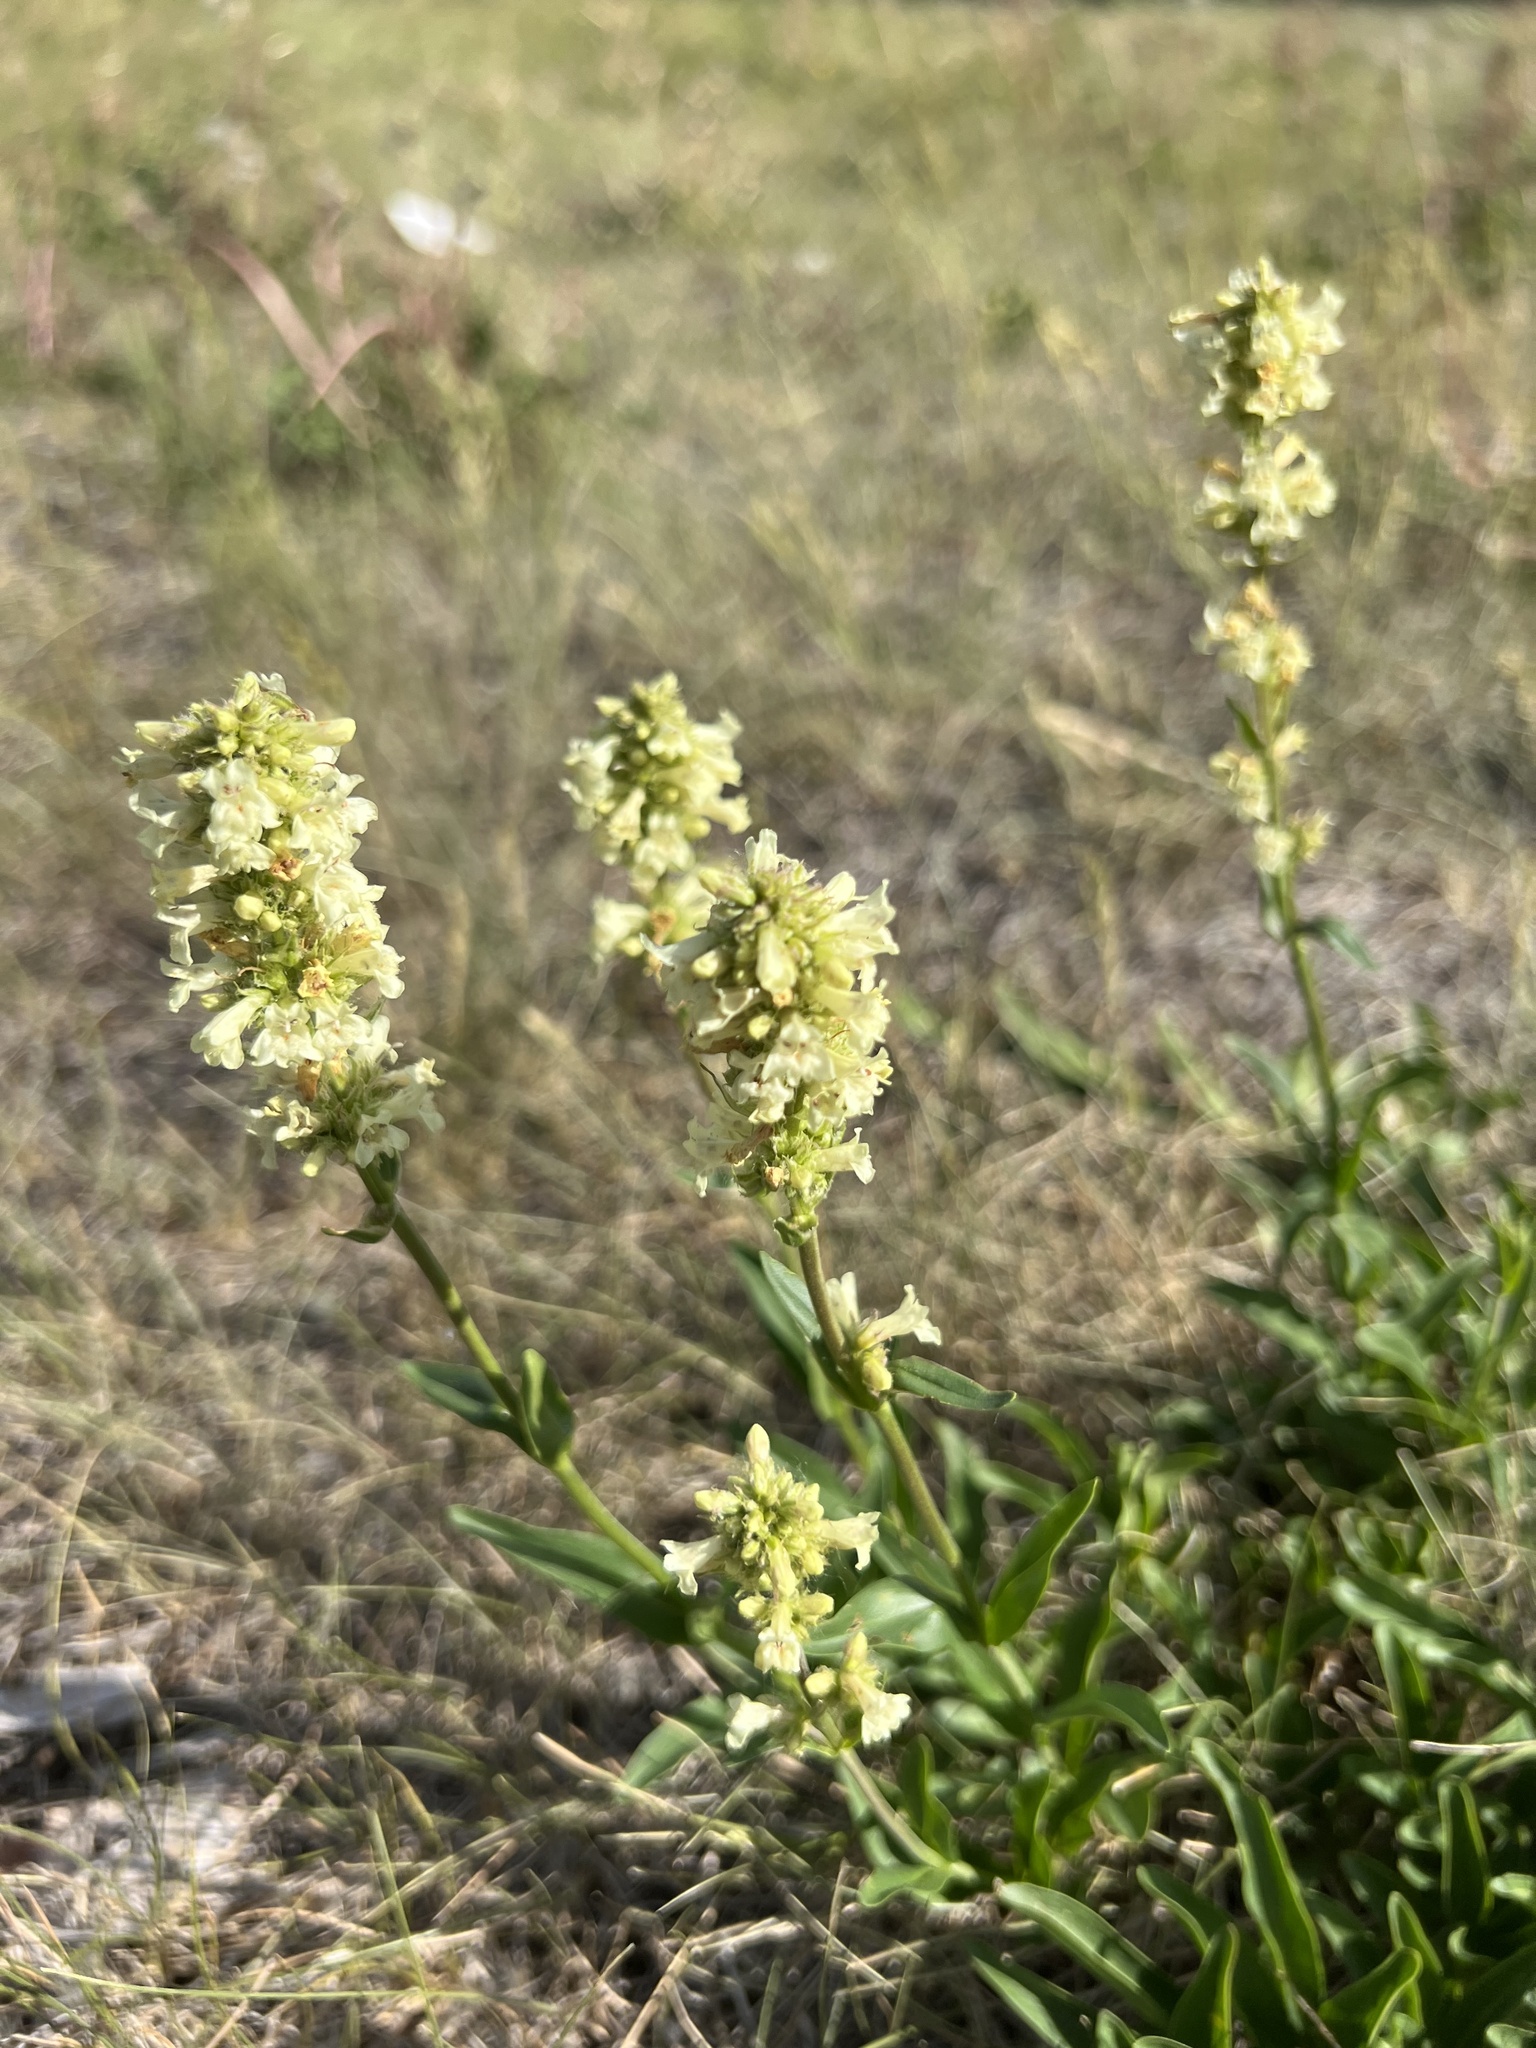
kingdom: Plantae
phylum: Tracheophyta
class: Magnoliopsida
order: Lamiales
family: Plantaginaceae
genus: Penstemon
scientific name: Penstemon confertus
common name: Lesser yellow beardtongue
